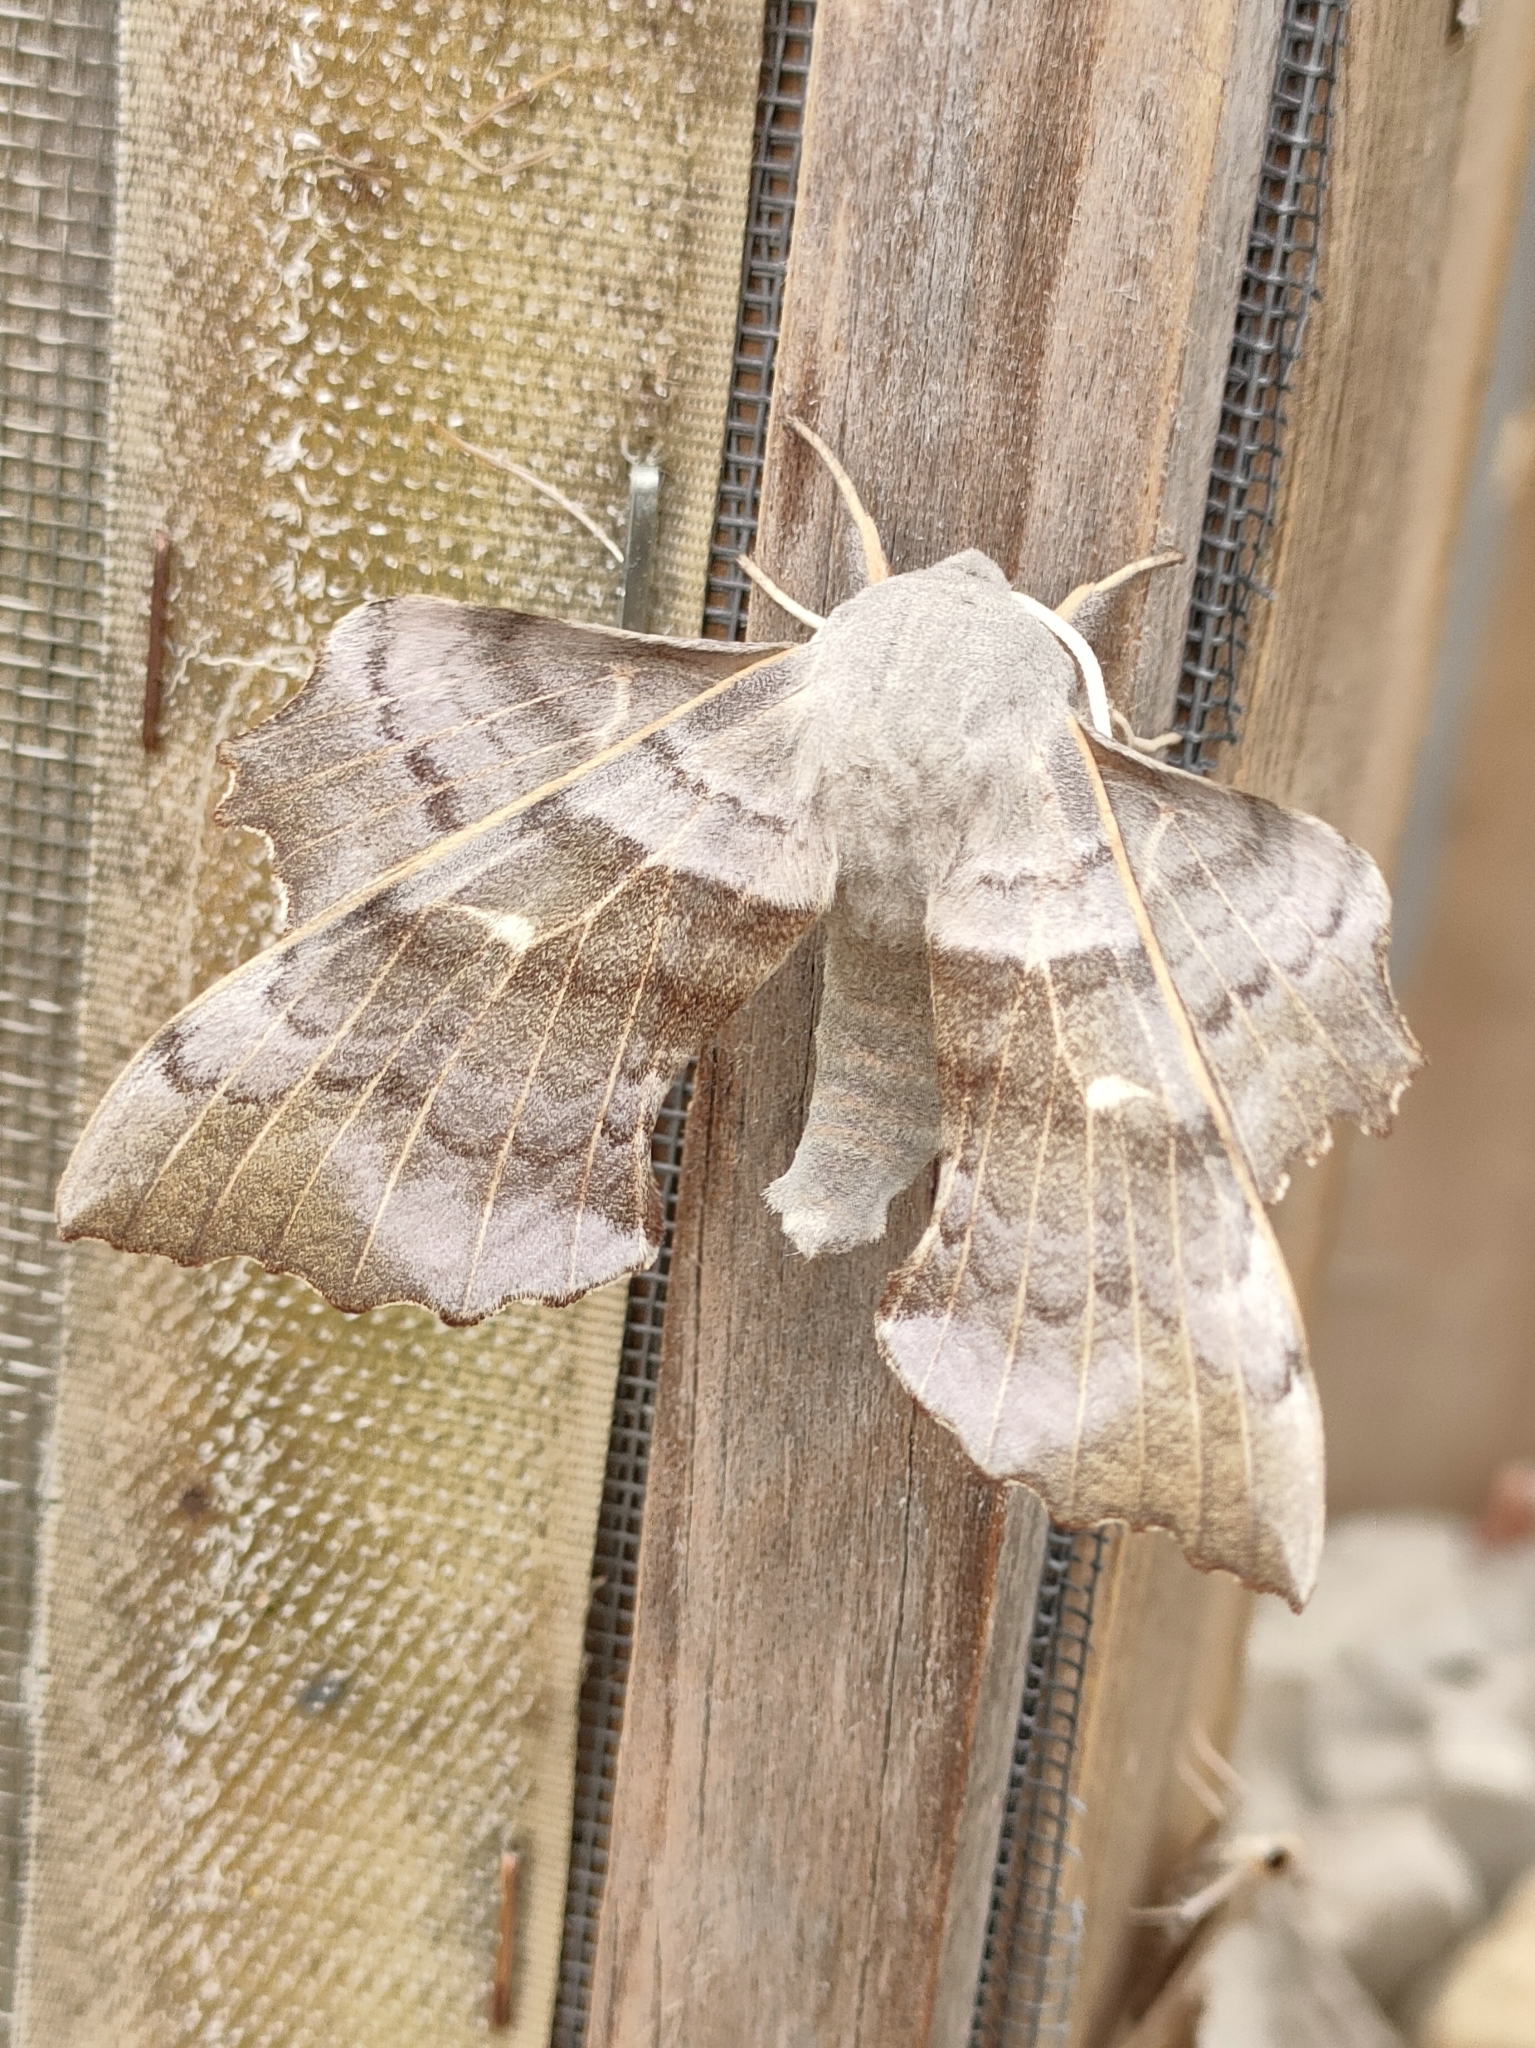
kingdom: Animalia
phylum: Arthropoda
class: Insecta
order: Lepidoptera
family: Sphingidae
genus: Laothoe
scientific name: Laothoe populi
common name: Poplar hawk-moth
